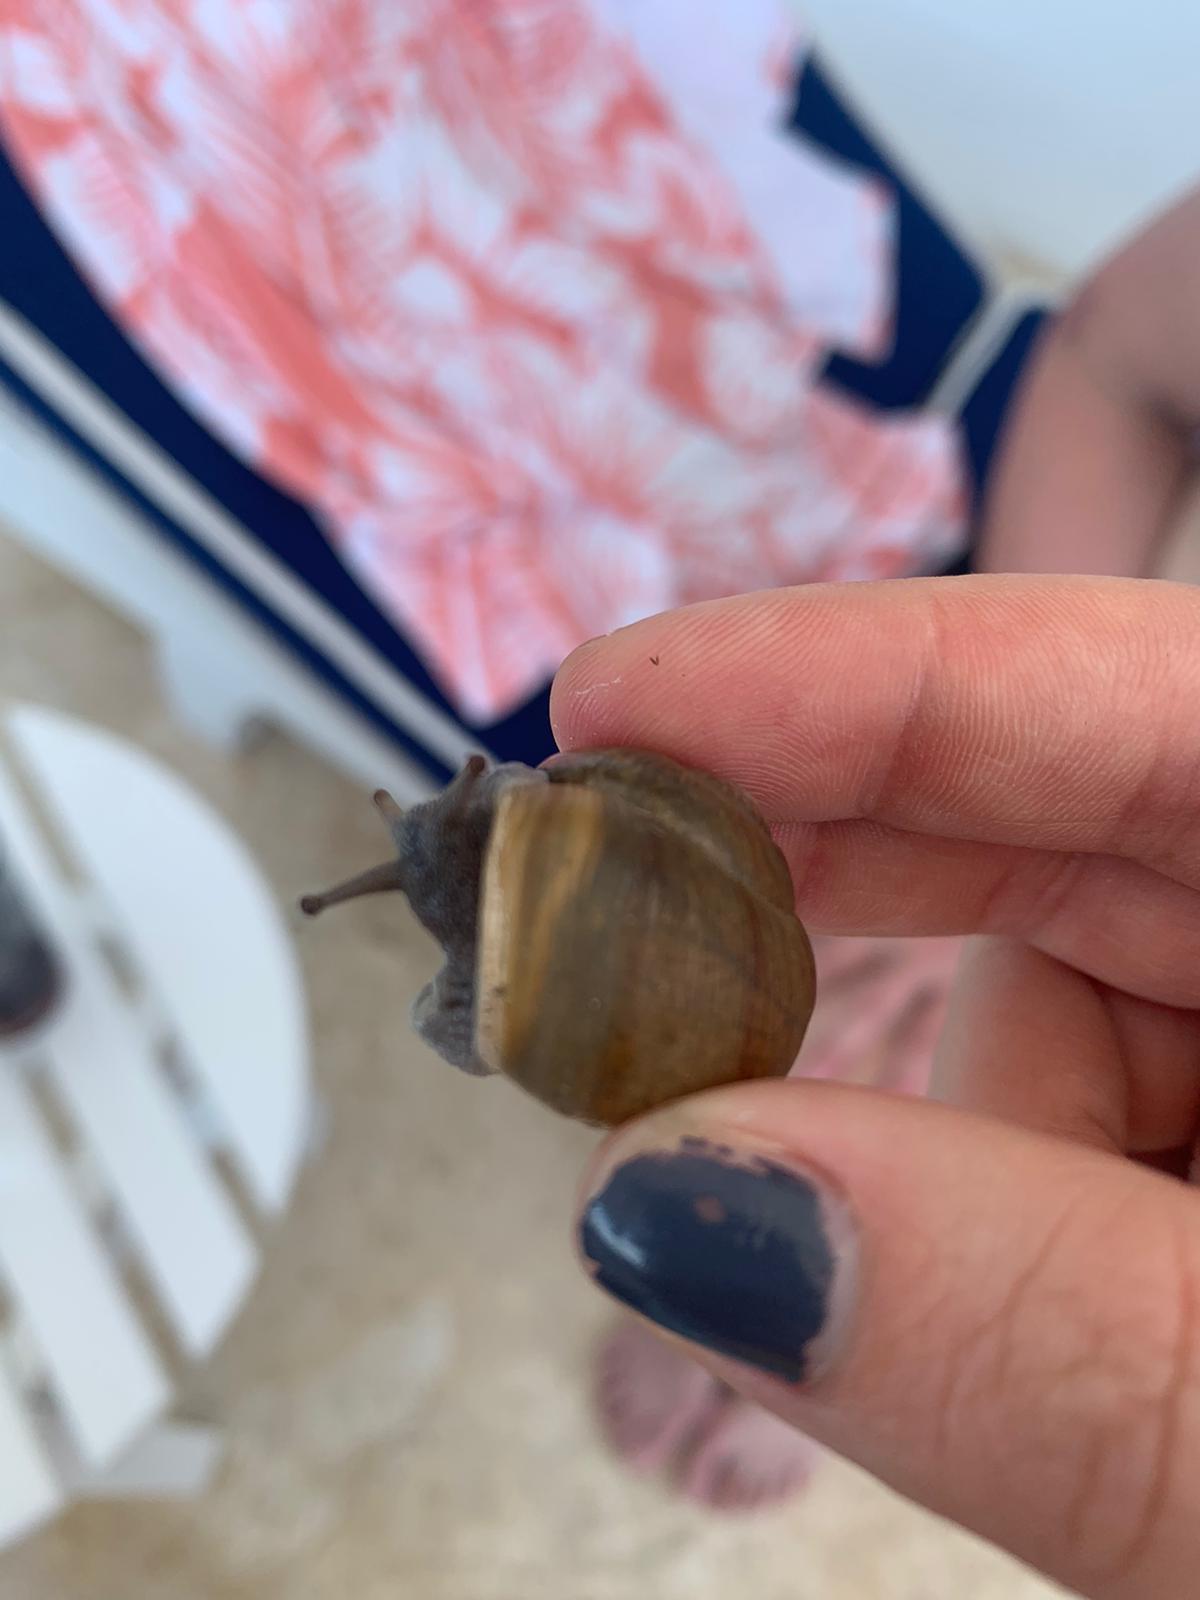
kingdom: Animalia
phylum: Mollusca
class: Gastropoda
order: Stylommatophora
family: Zachrysiidae
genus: Zachrysia
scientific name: Zachrysia provisoria
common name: Garden zachrysia
